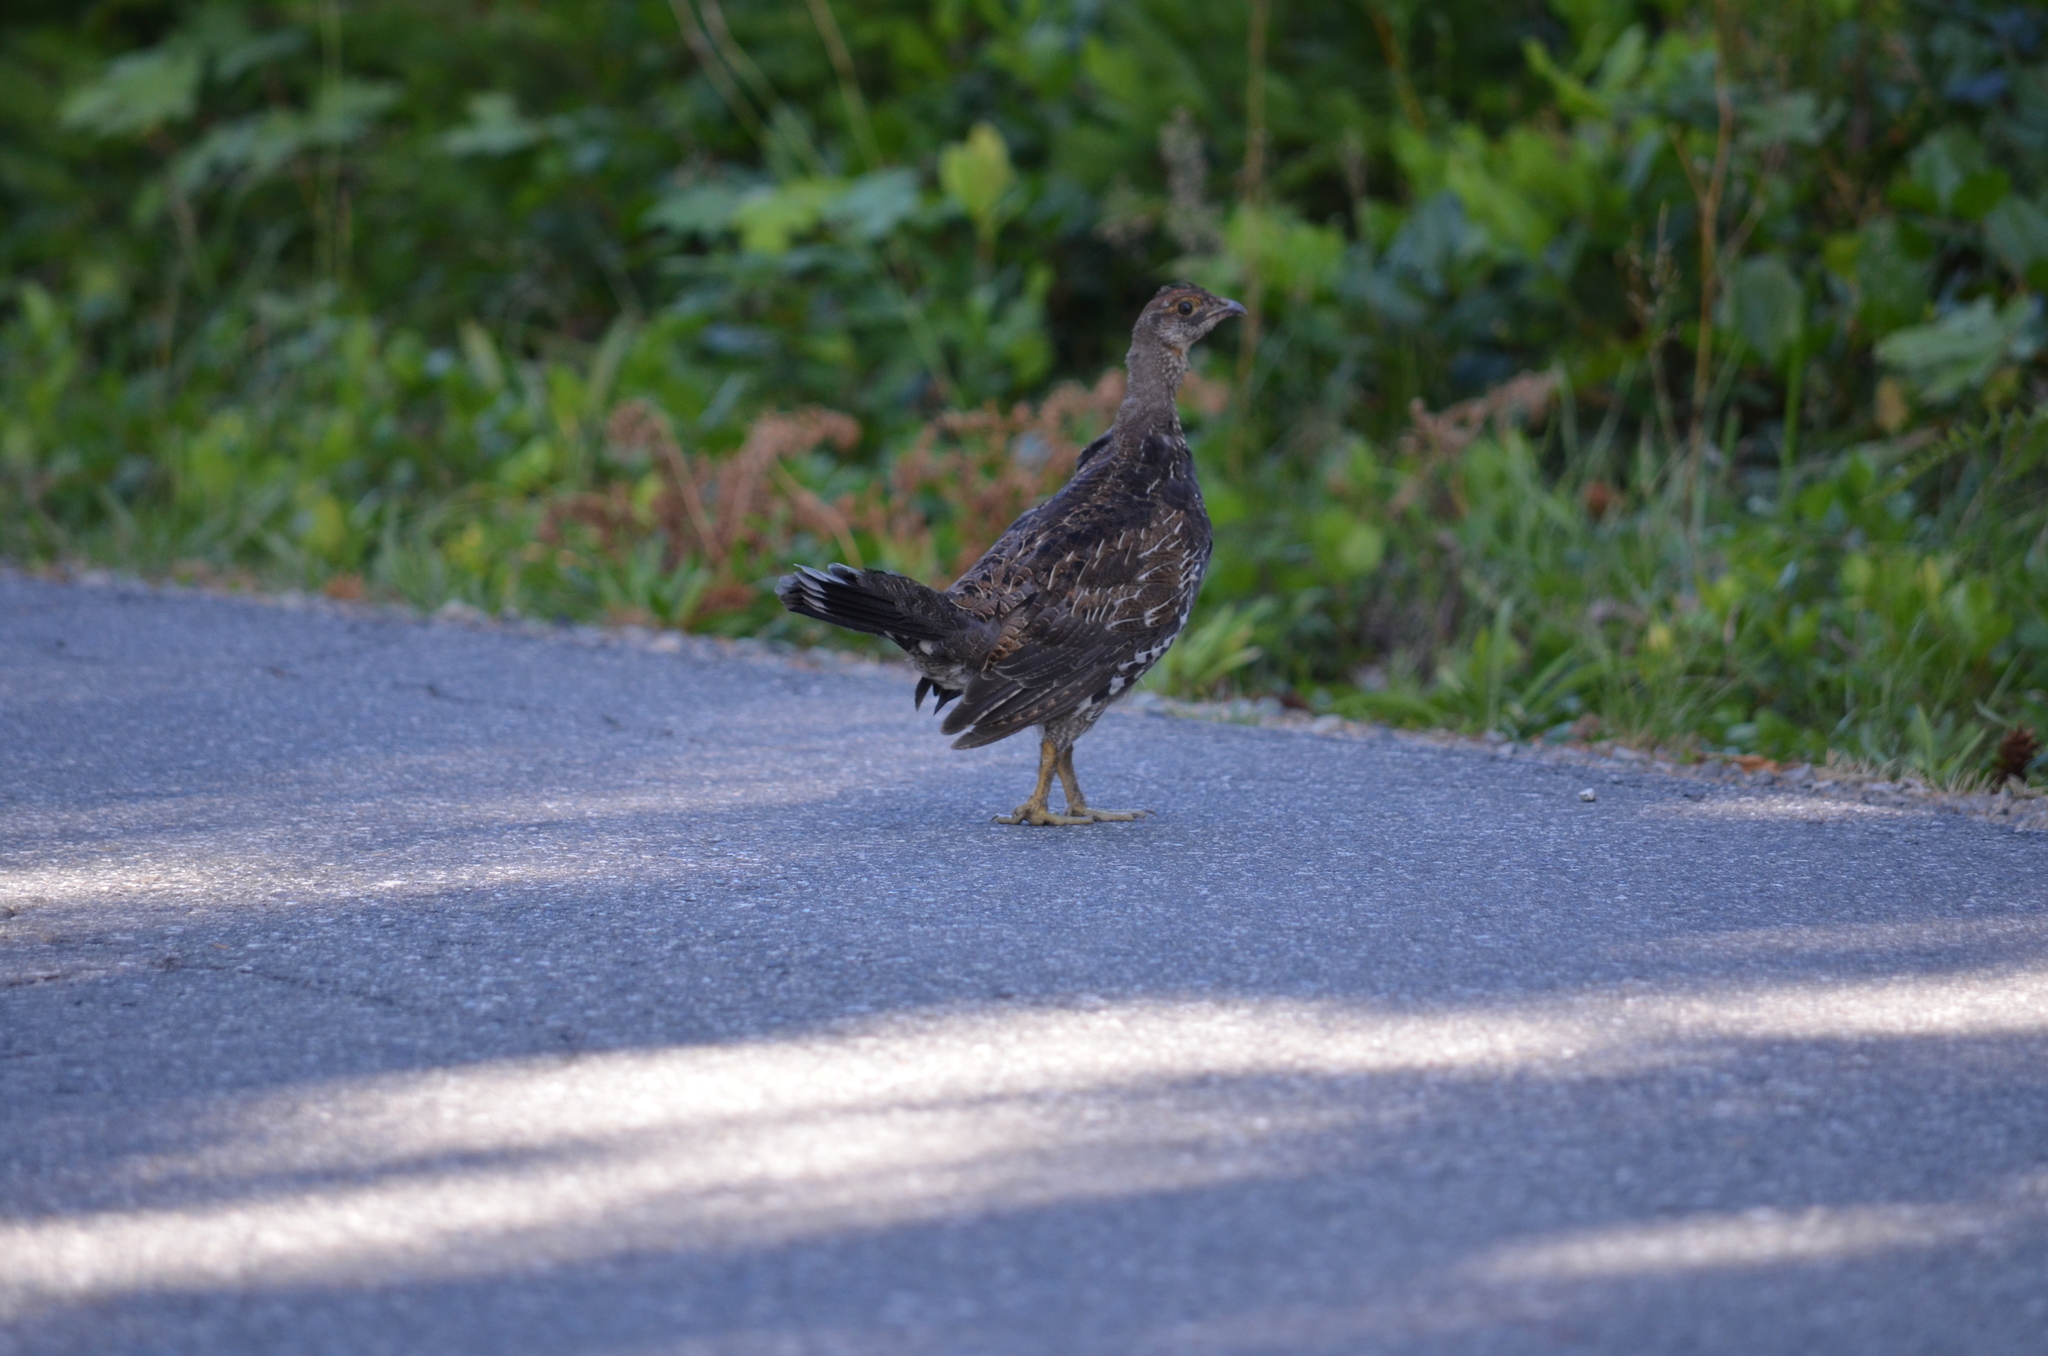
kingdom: Animalia
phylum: Chordata
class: Aves
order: Galliformes
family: Phasianidae
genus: Dendragapus
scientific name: Dendragapus fuliginosus
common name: Sooty grouse
